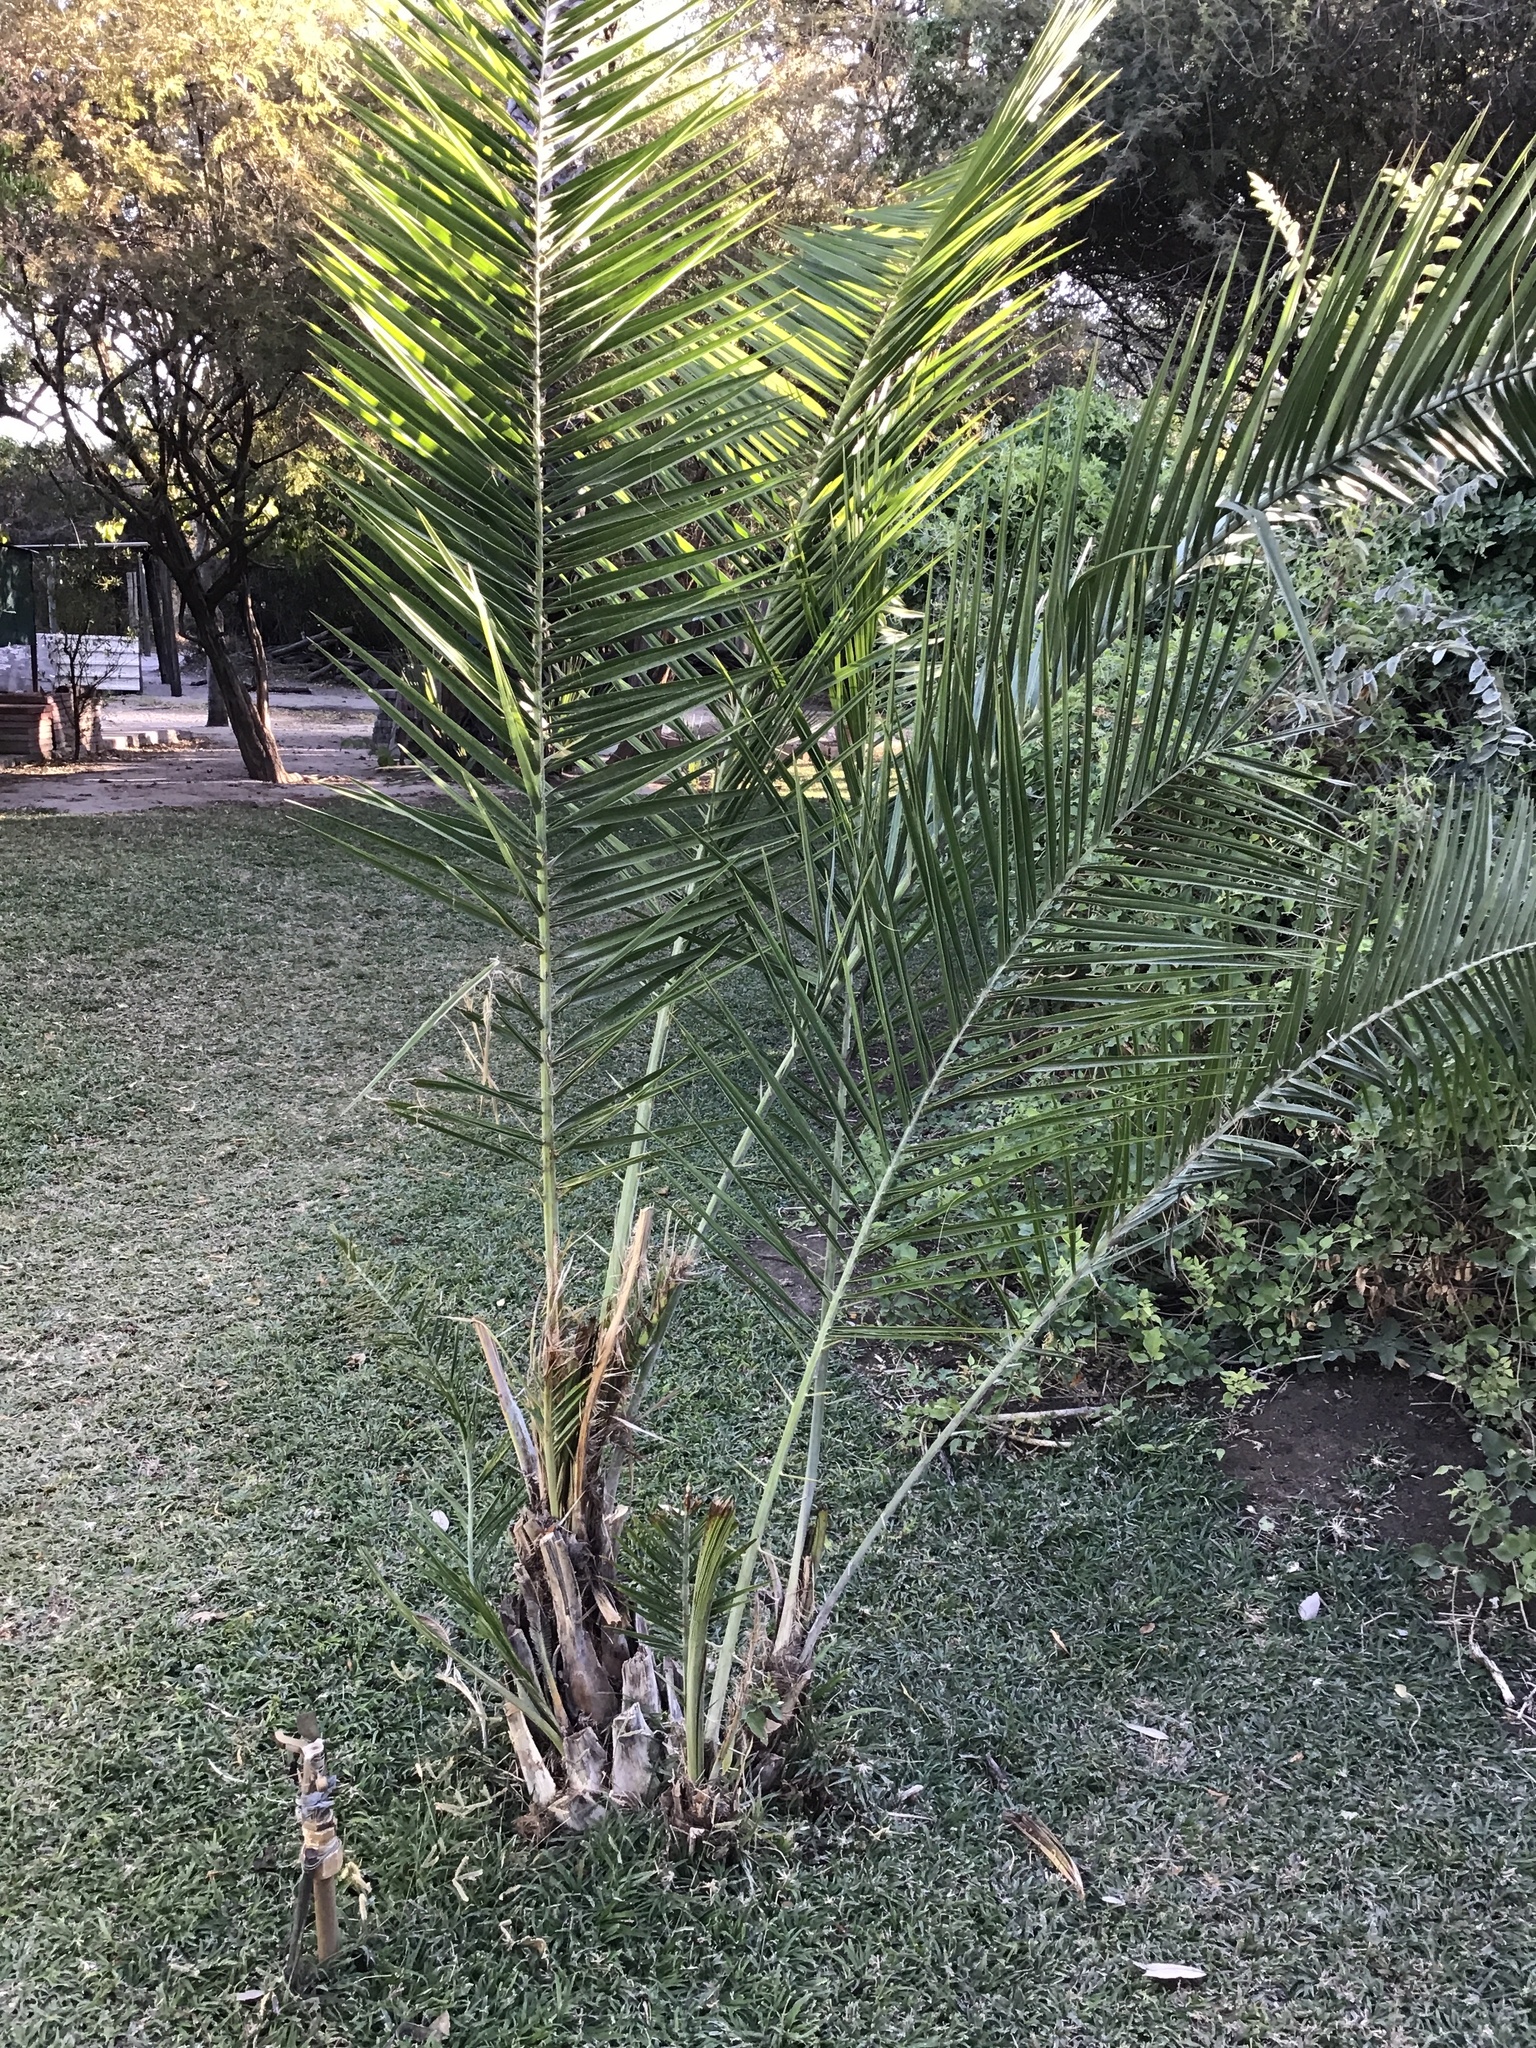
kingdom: Plantae
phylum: Tracheophyta
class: Liliopsida
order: Arecales
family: Arecaceae
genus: Phoenix
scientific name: Phoenix reclinata
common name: Senegal date palm
